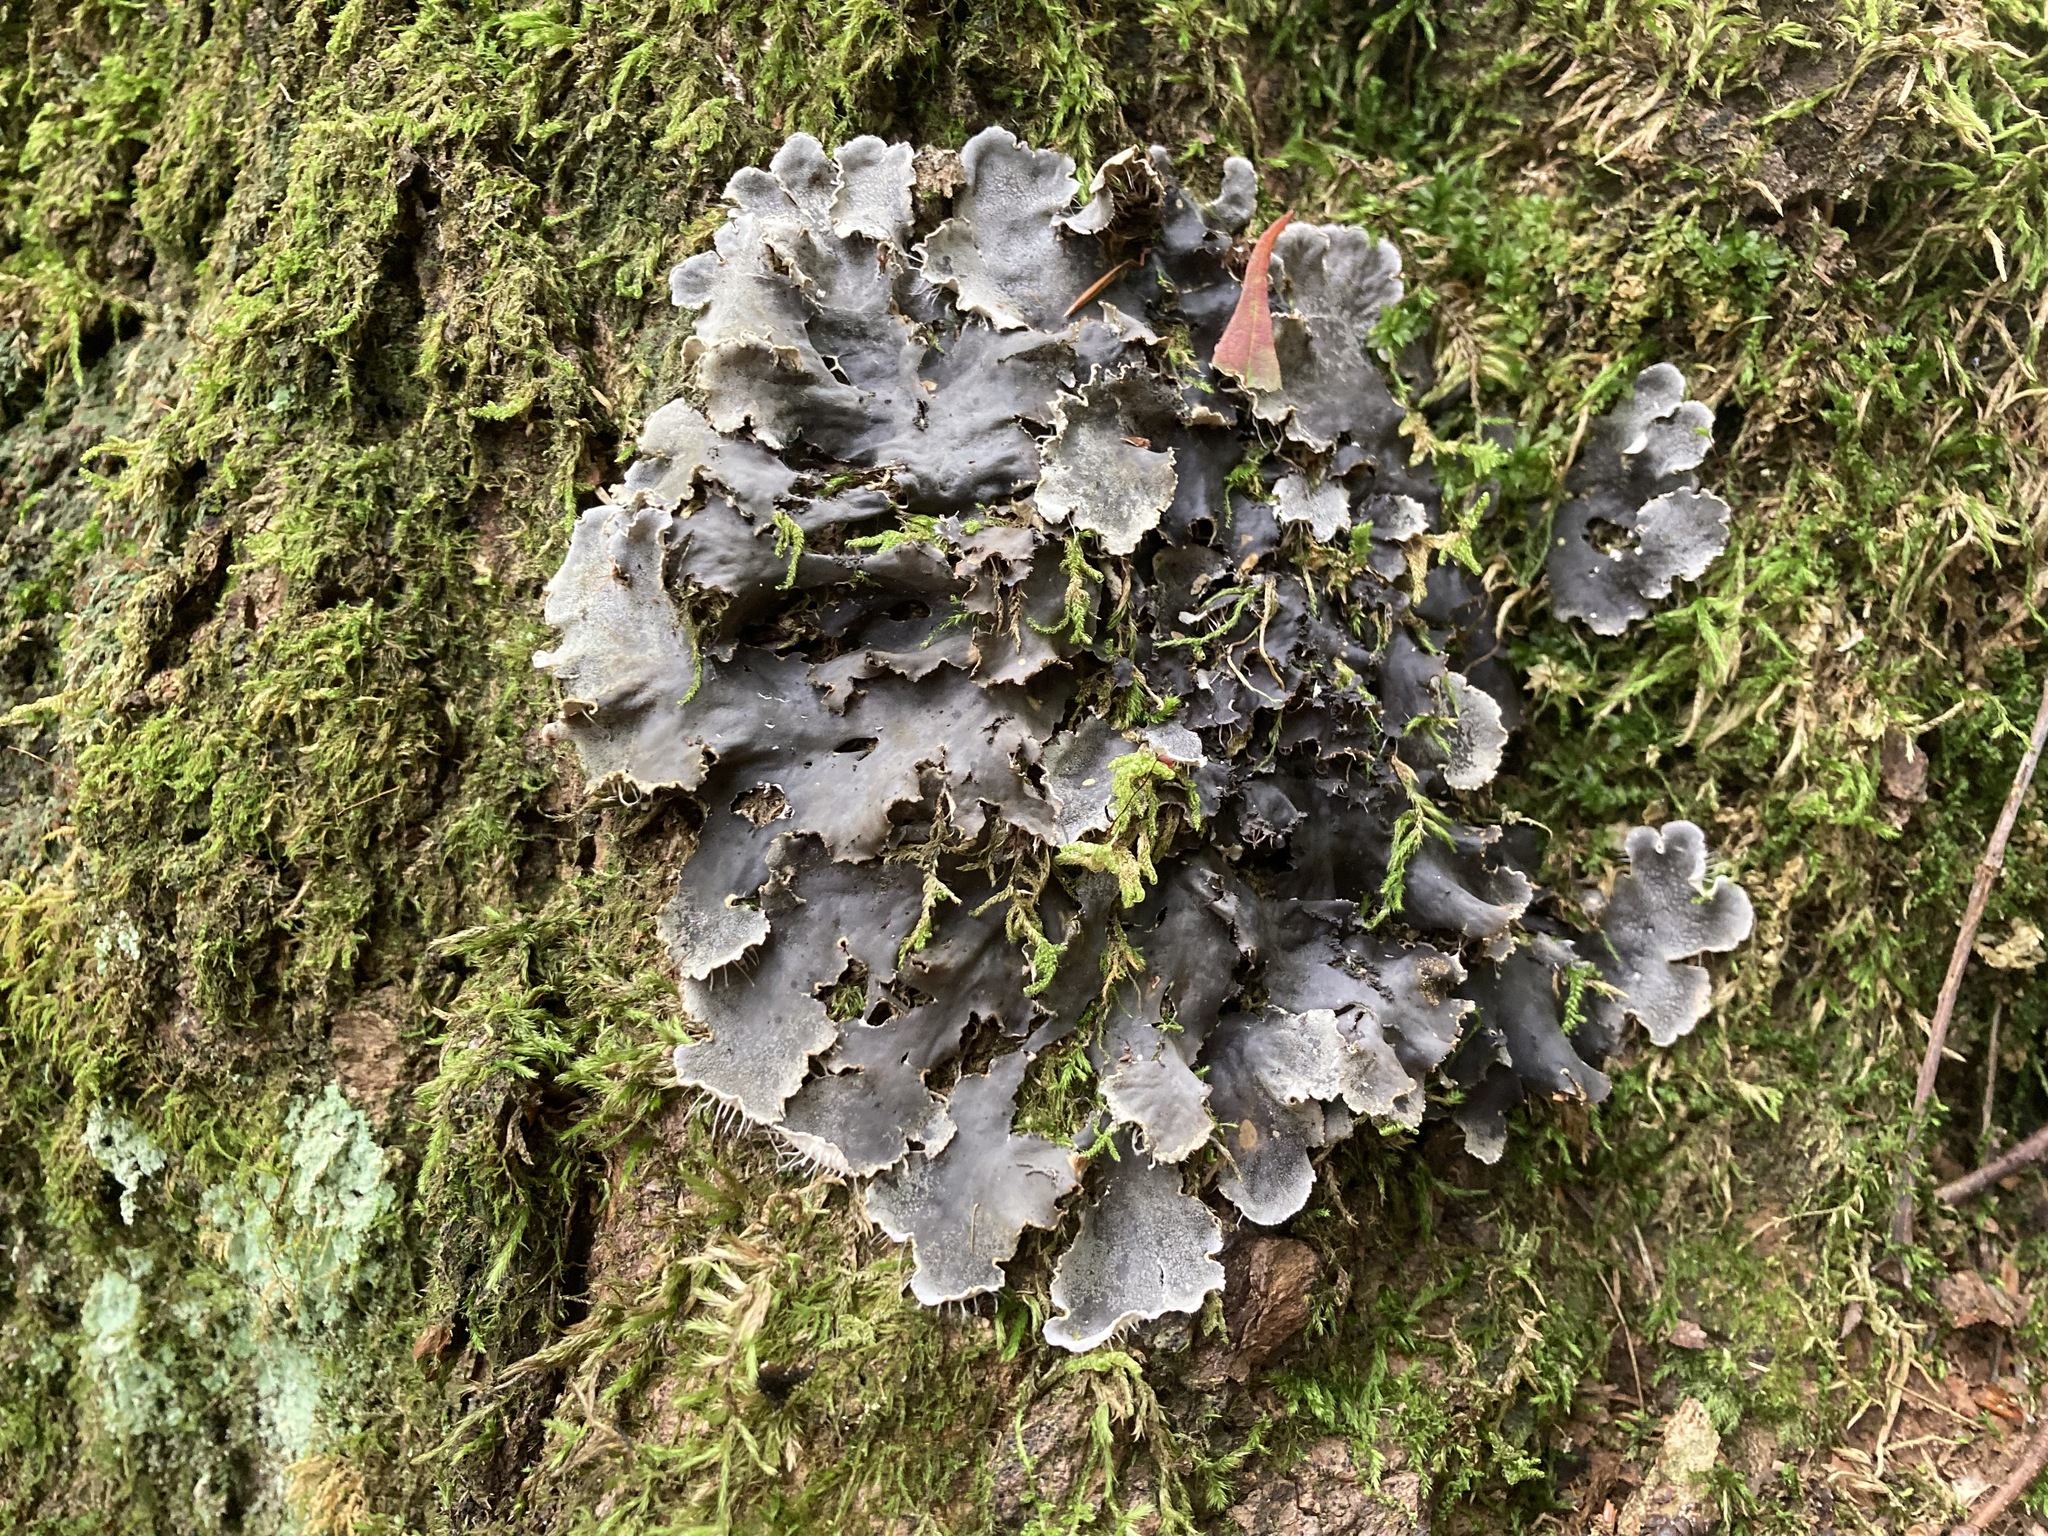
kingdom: Fungi
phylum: Ascomycota
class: Lecanoromycetes
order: Peltigerales
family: Peltigeraceae
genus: Peltigera
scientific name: Peltigera praetextata
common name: Scaly dog-lichen
